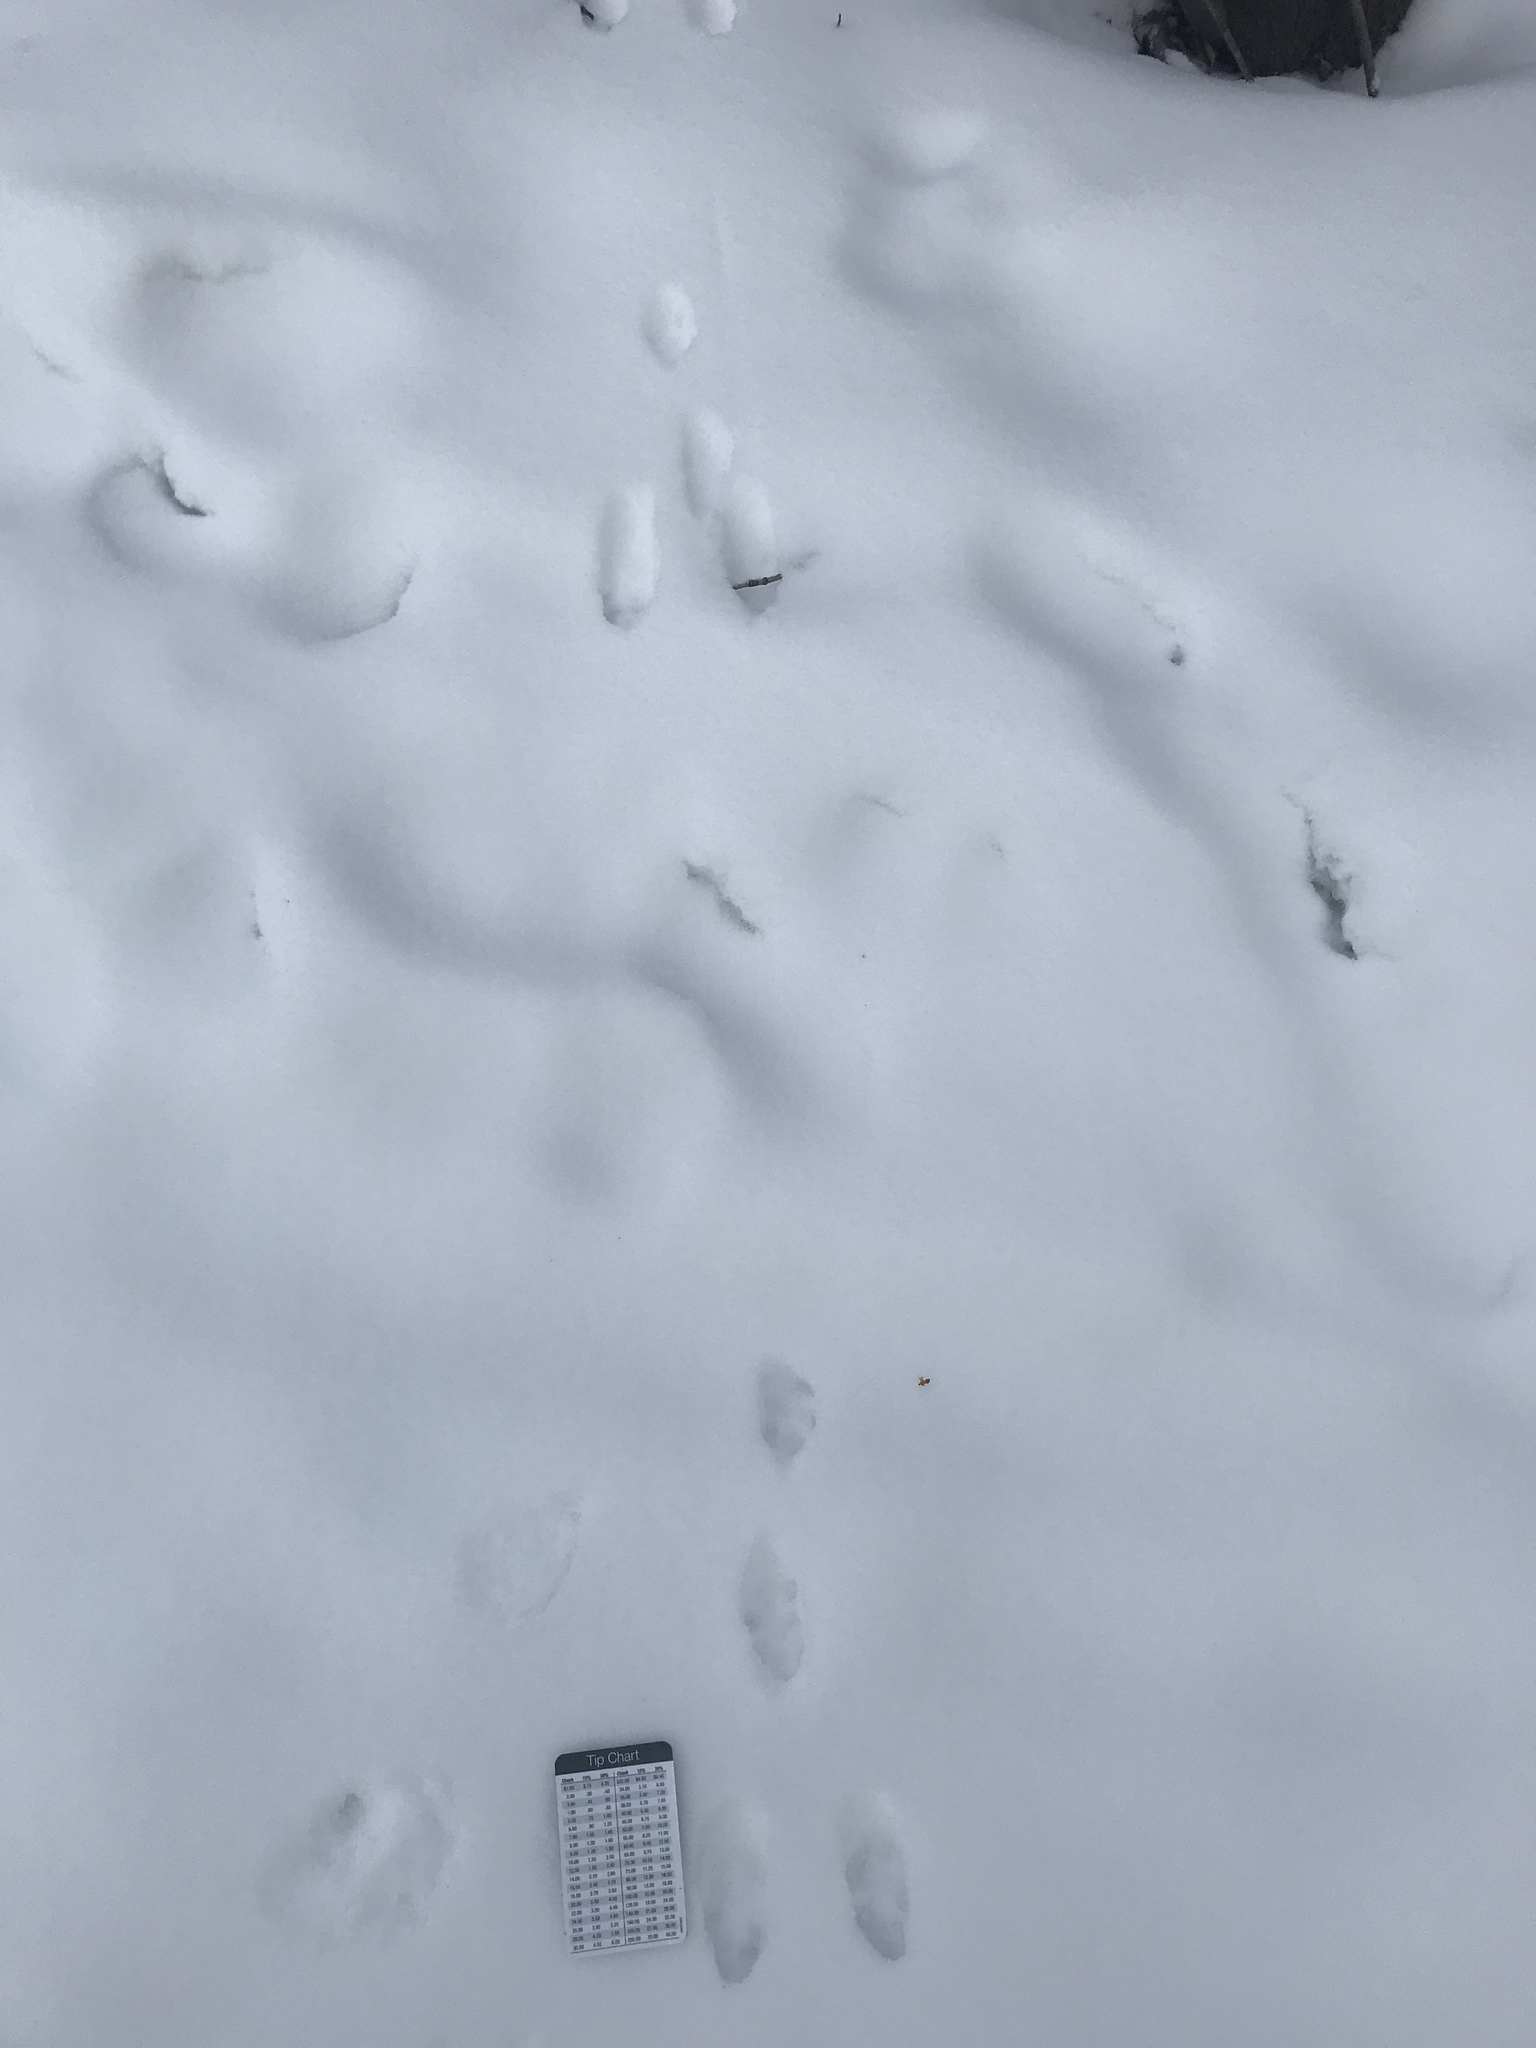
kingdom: Animalia
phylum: Chordata
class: Mammalia
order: Lagomorpha
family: Leporidae
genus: Sylvilagus
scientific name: Sylvilagus floridanus
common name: Eastern cottontail
